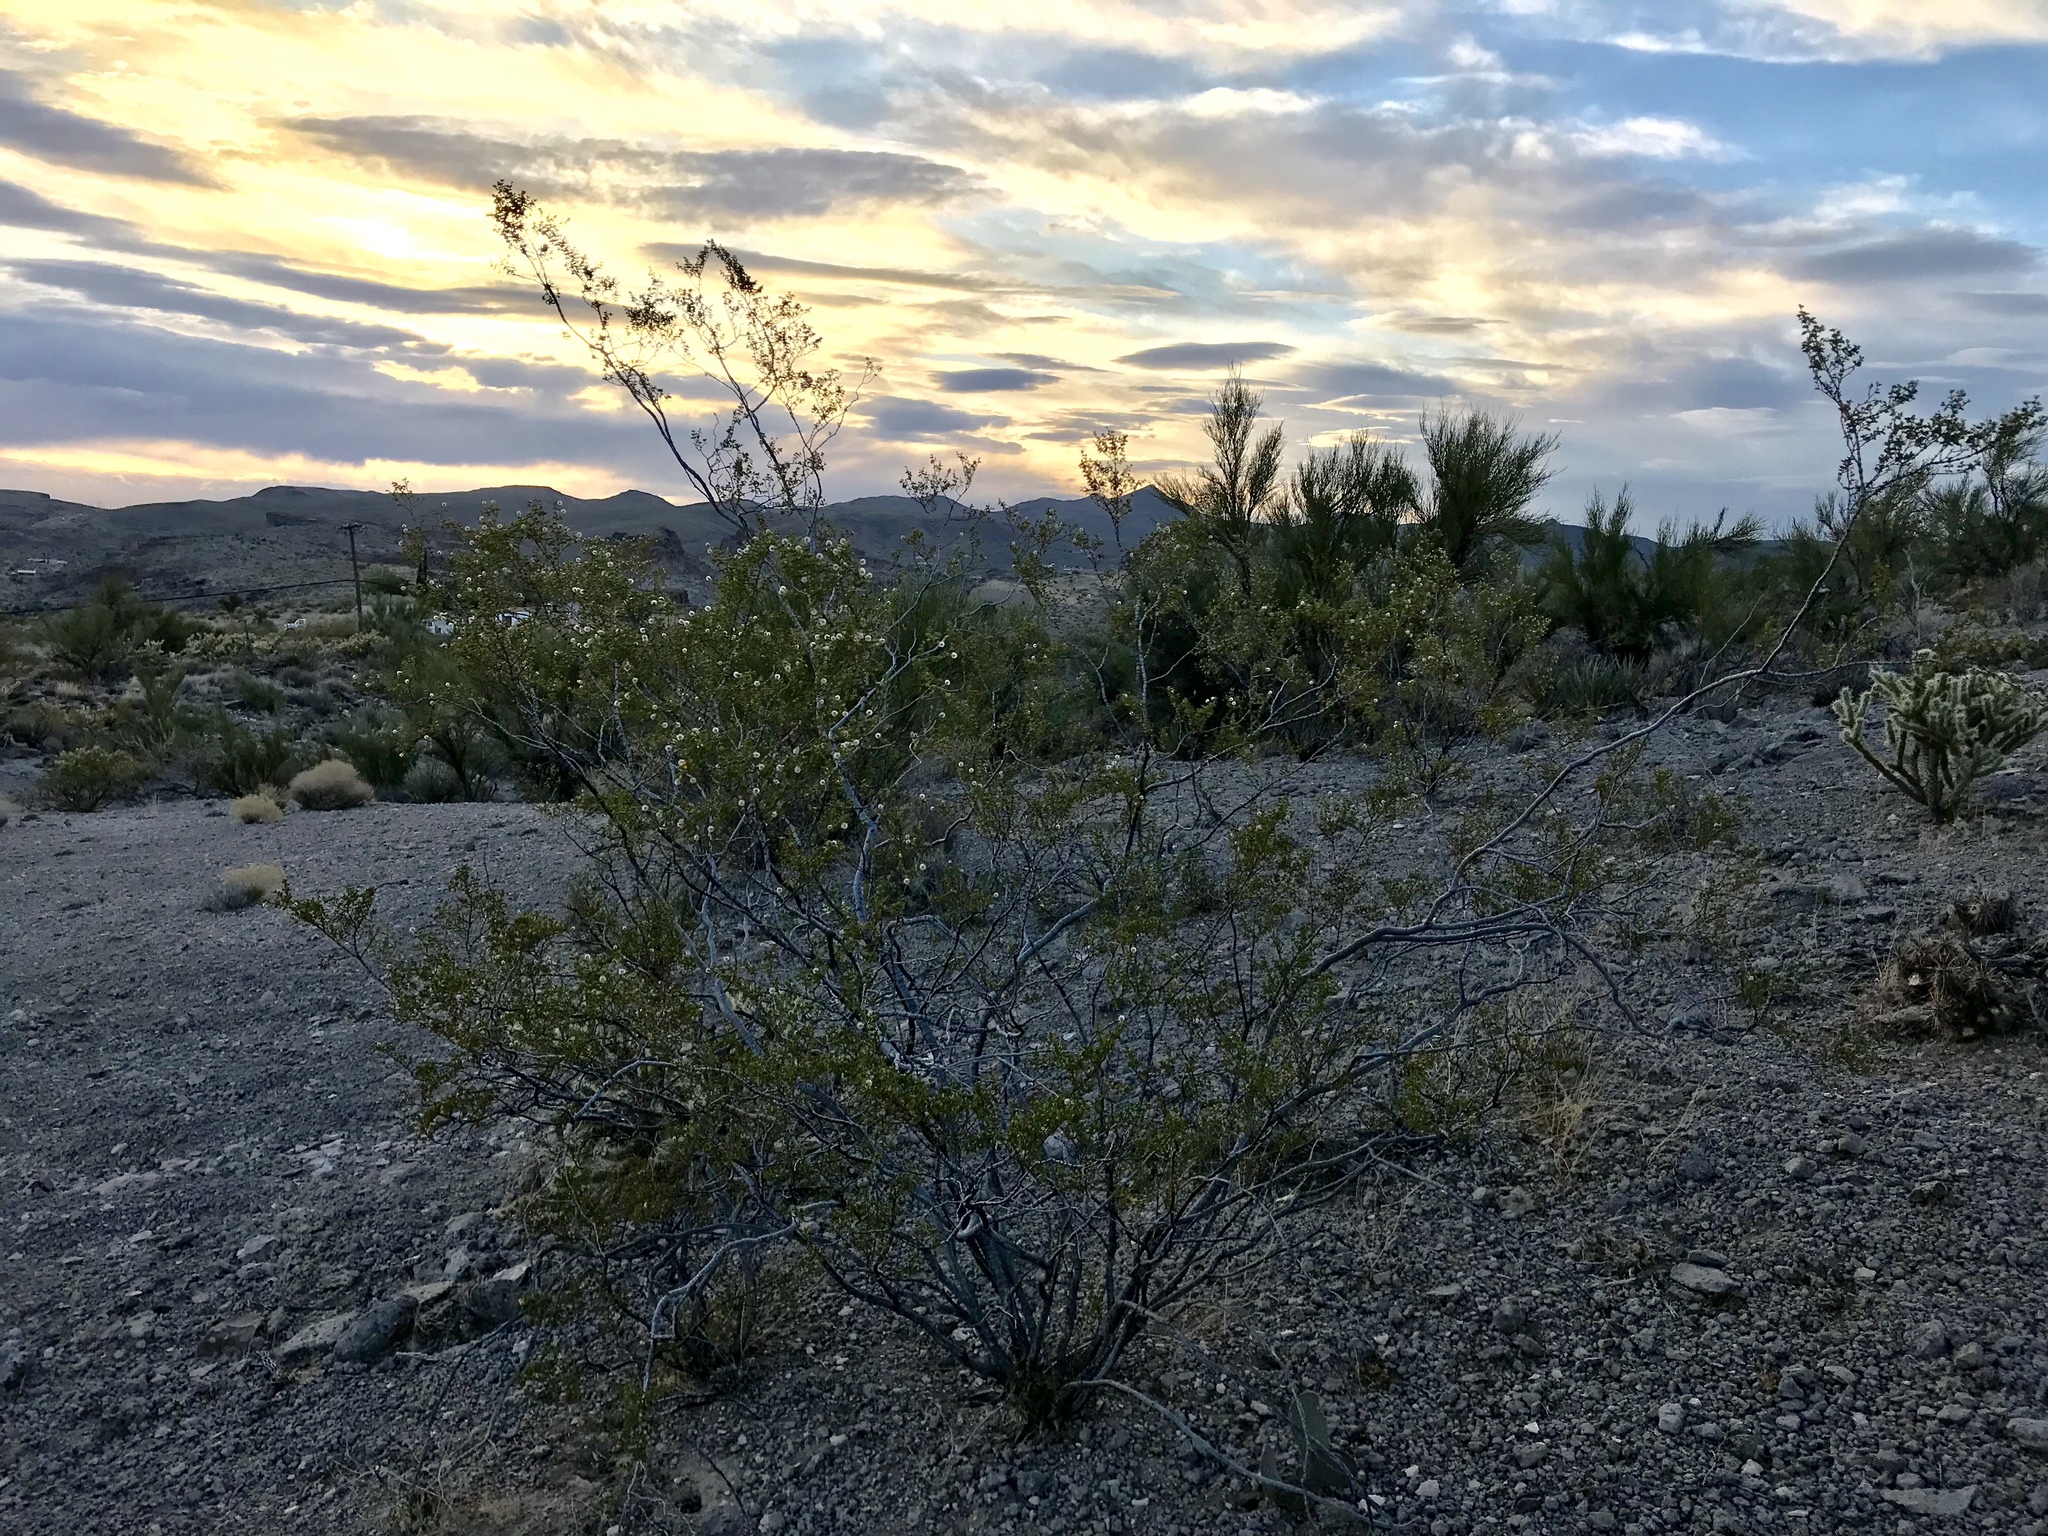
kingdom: Plantae
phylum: Tracheophyta
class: Magnoliopsida
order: Zygophyllales
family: Zygophyllaceae
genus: Larrea
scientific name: Larrea tridentata
